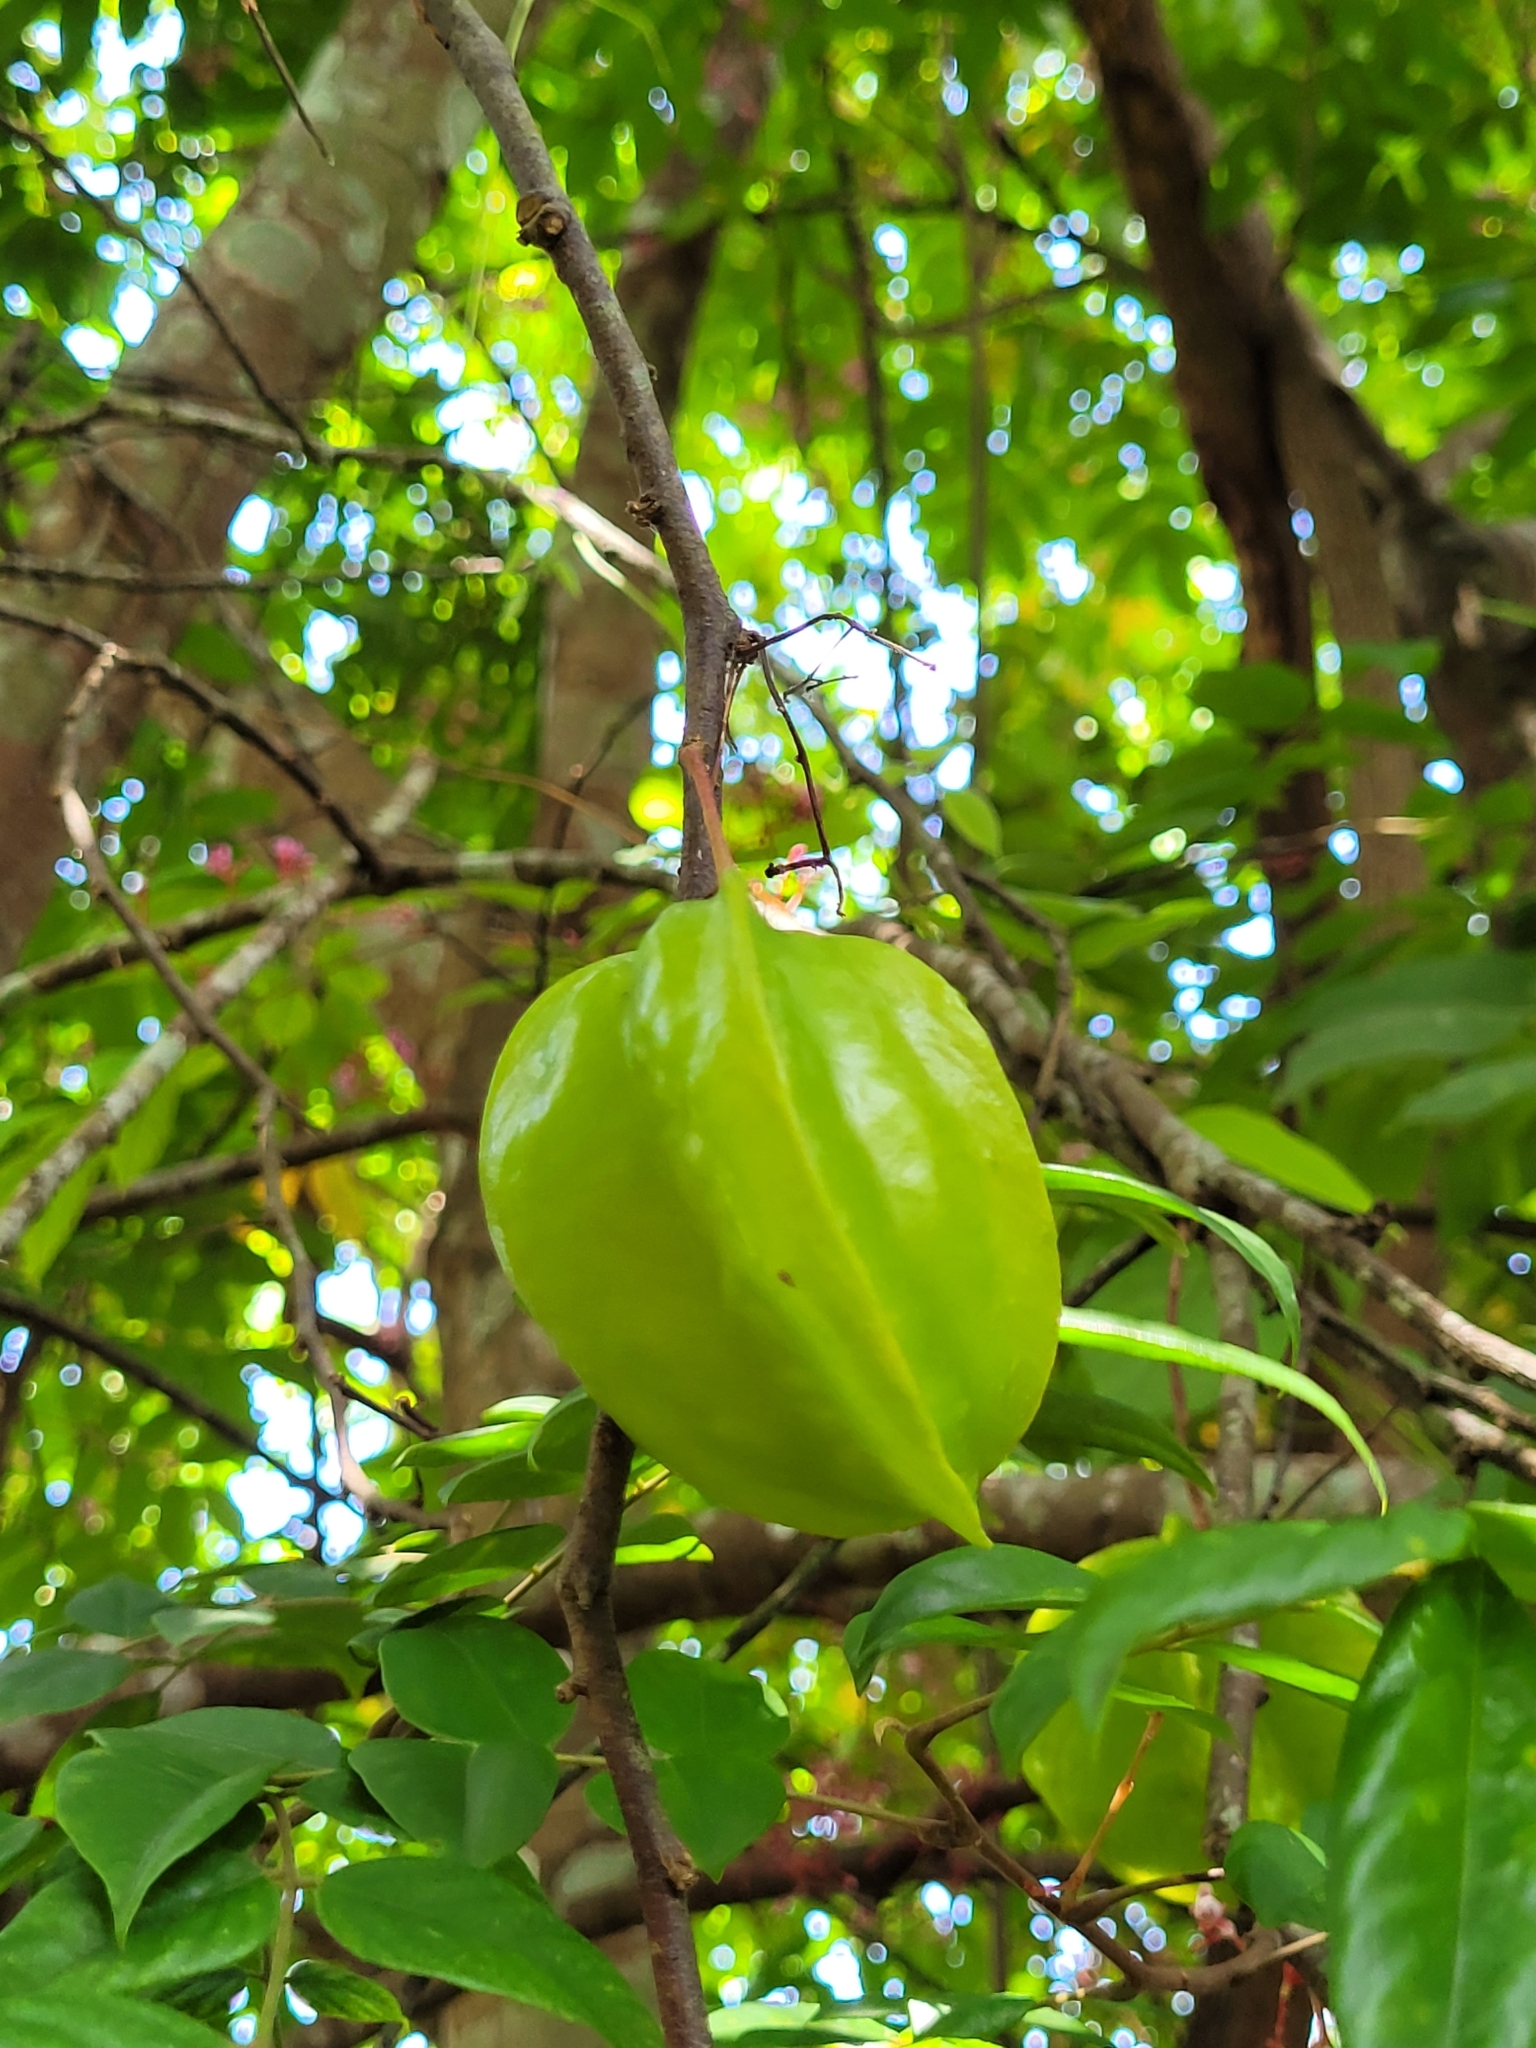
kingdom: Plantae
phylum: Tracheophyta
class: Magnoliopsida
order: Oxalidales
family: Oxalidaceae
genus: Averrhoa
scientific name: Averrhoa carambola
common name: Blimbing
